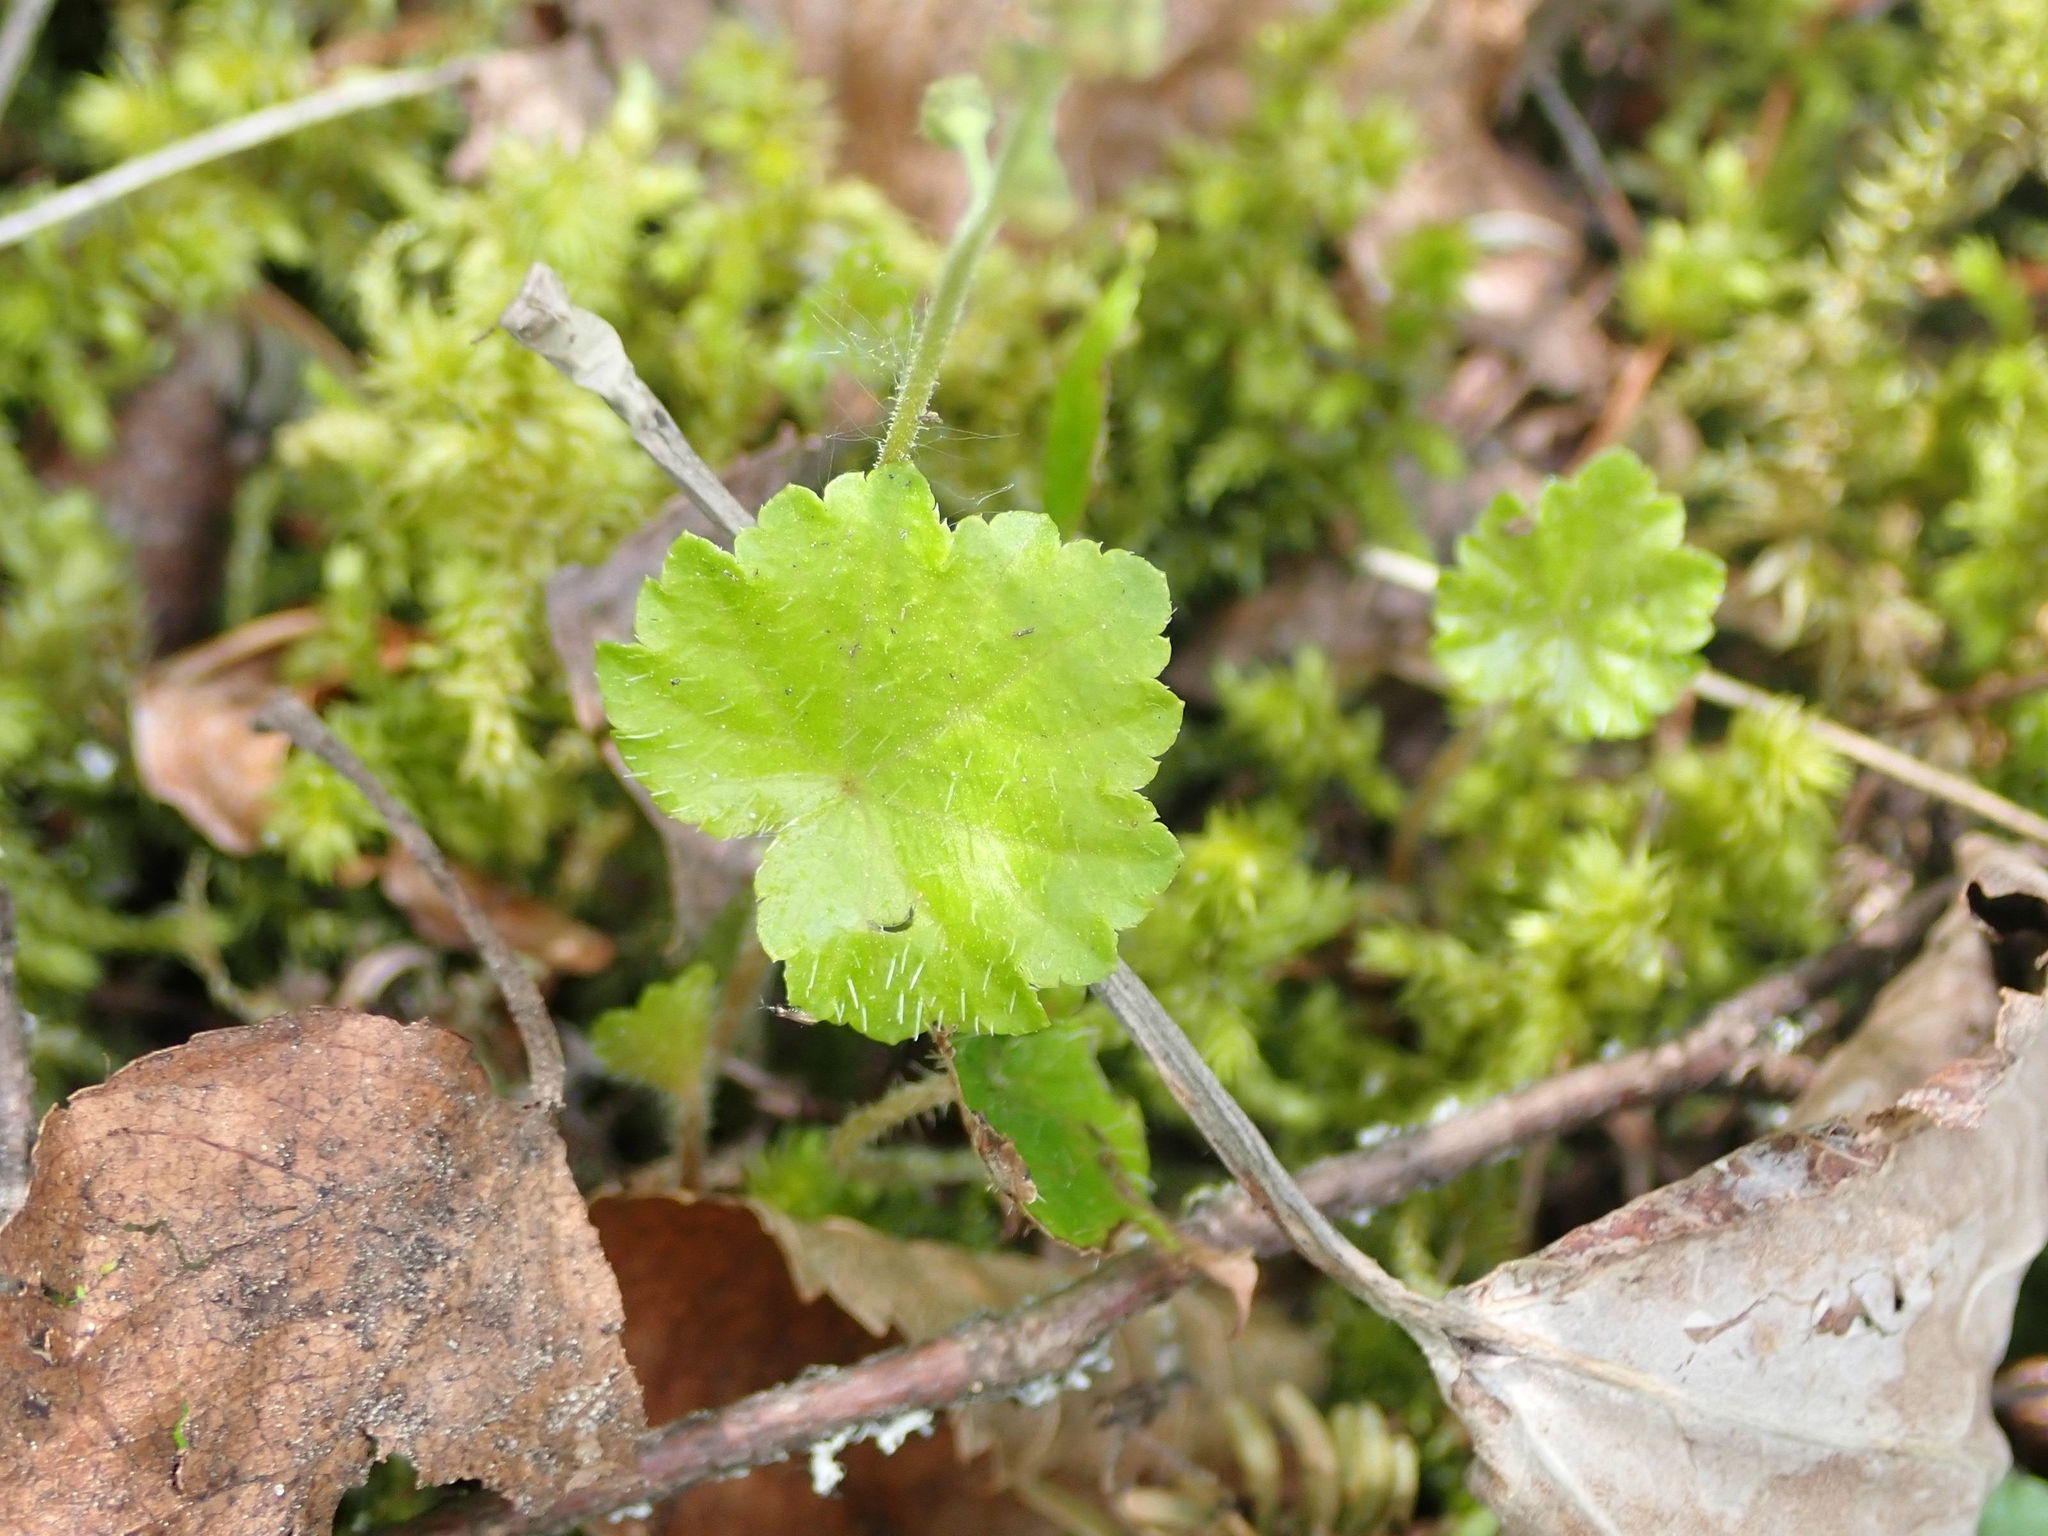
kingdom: Plantae
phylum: Tracheophyta
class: Magnoliopsida
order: Saxifragales
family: Saxifragaceae
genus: Mitella
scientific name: Mitella nuda
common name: Bare-stemmed bishop's-cap
